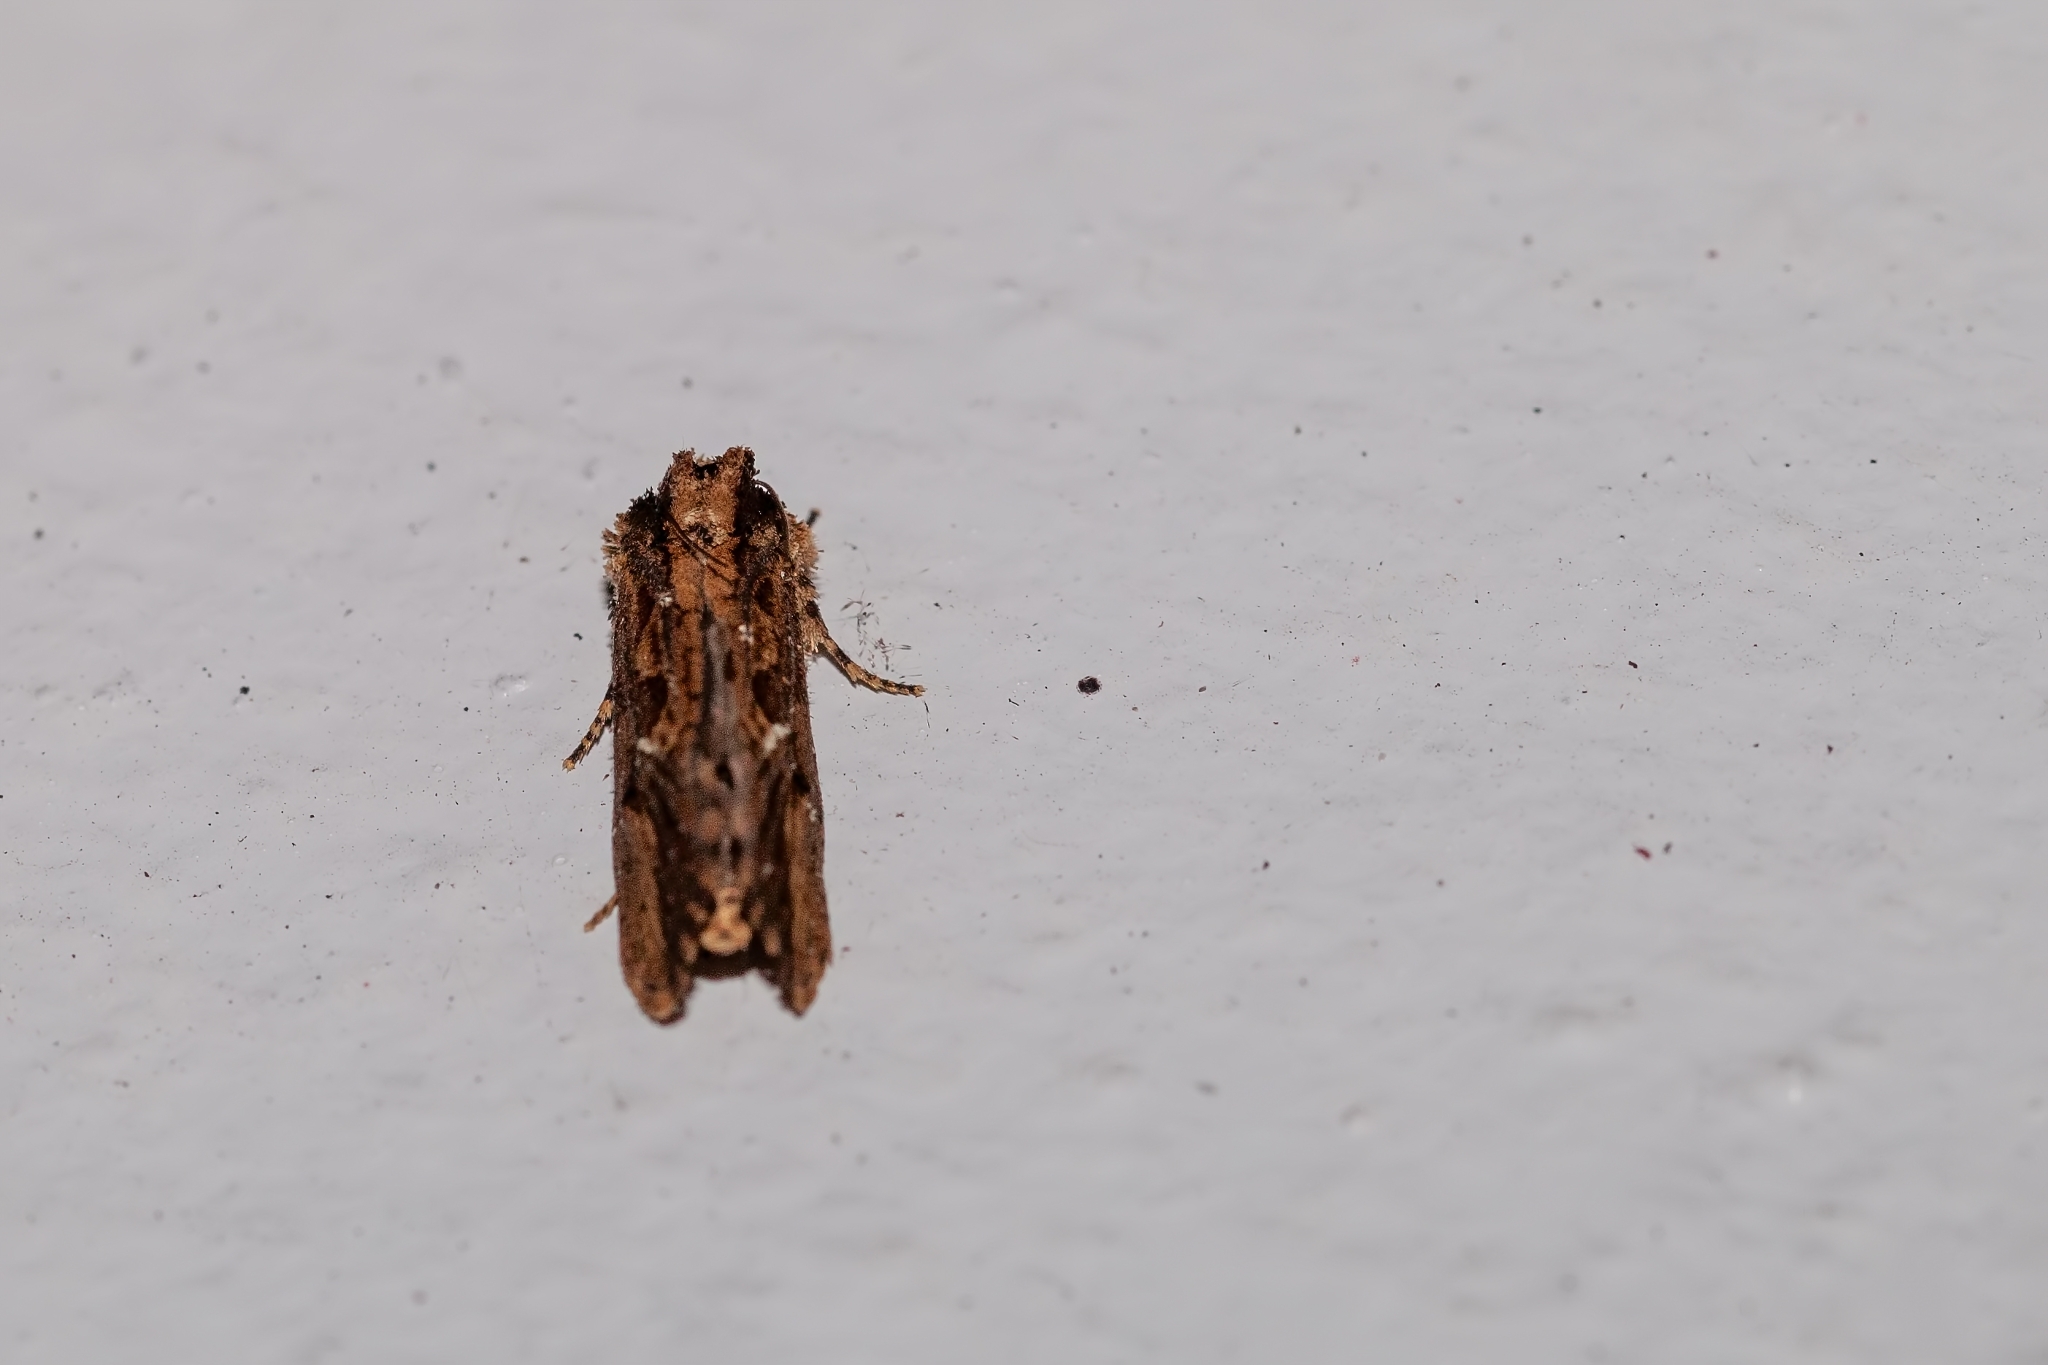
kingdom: Animalia
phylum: Arthropoda
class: Insecta
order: Lepidoptera
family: Tineidae
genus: Acrolophus
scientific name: Acrolophus walsinghami
